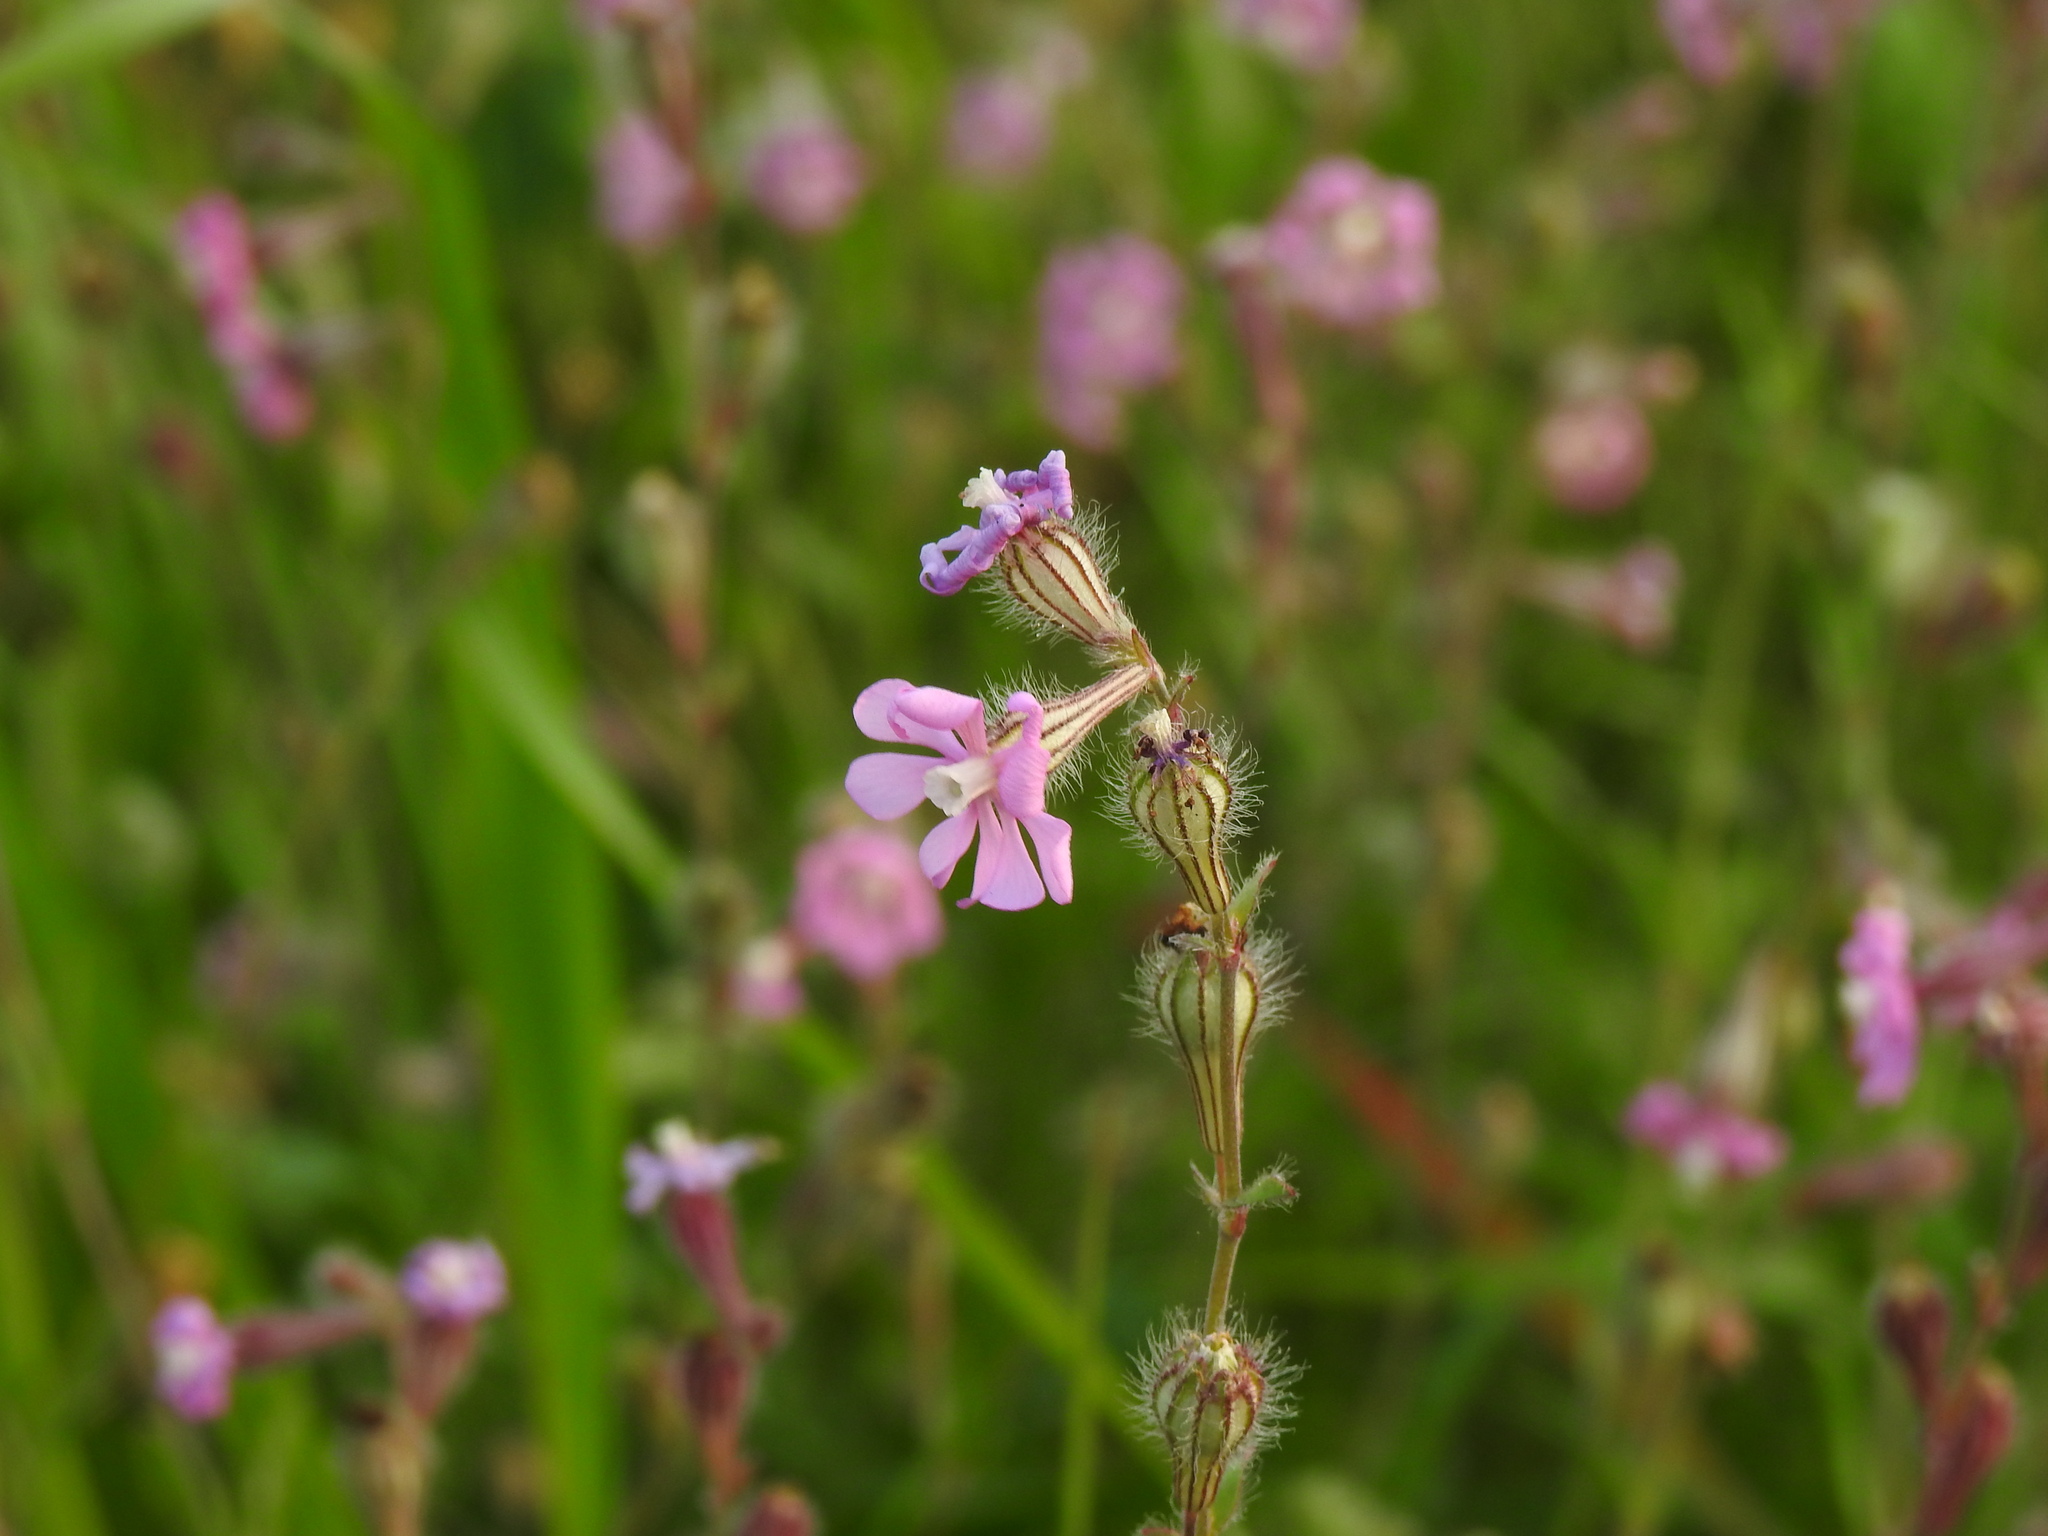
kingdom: Plantae
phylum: Tracheophyta
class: Magnoliopsida
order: Caryophyllales
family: Caryophyllaceae
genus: Silene
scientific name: Silene colorata
